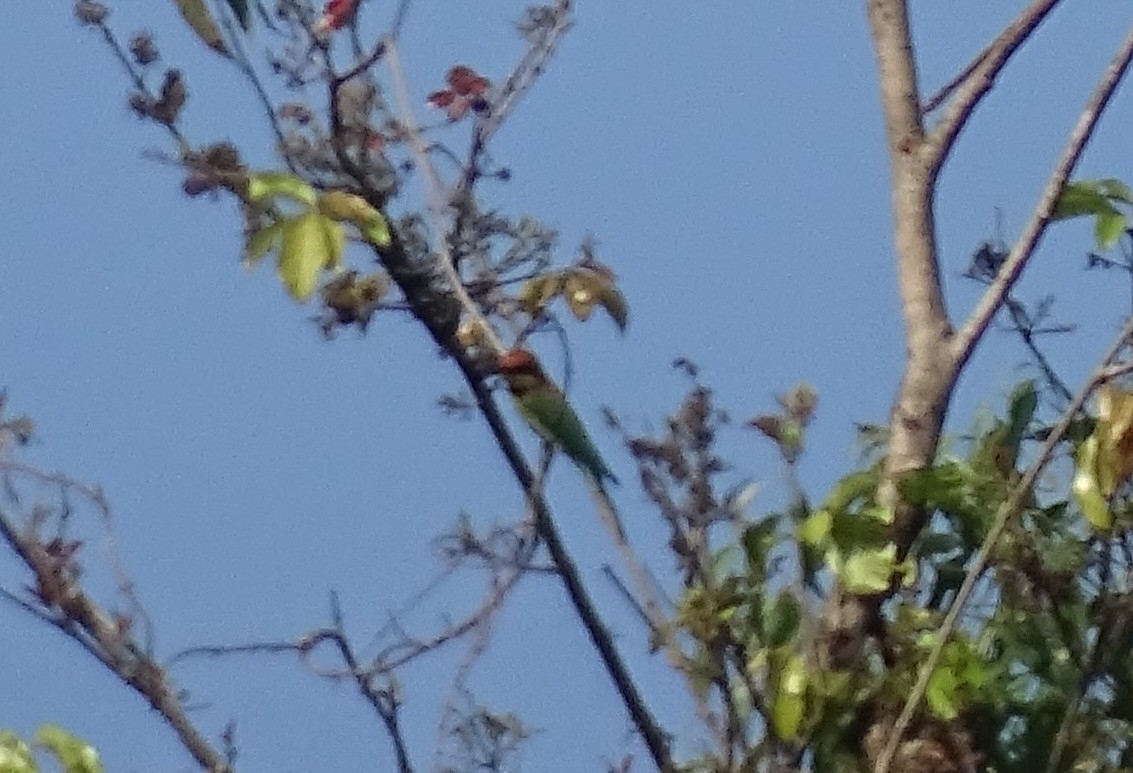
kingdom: Animalia
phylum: Chordata
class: Aves
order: Coraciiformes
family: Meropidae
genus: Merops
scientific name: Merops leschenaulti
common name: Chestnut-headed bee-eater
